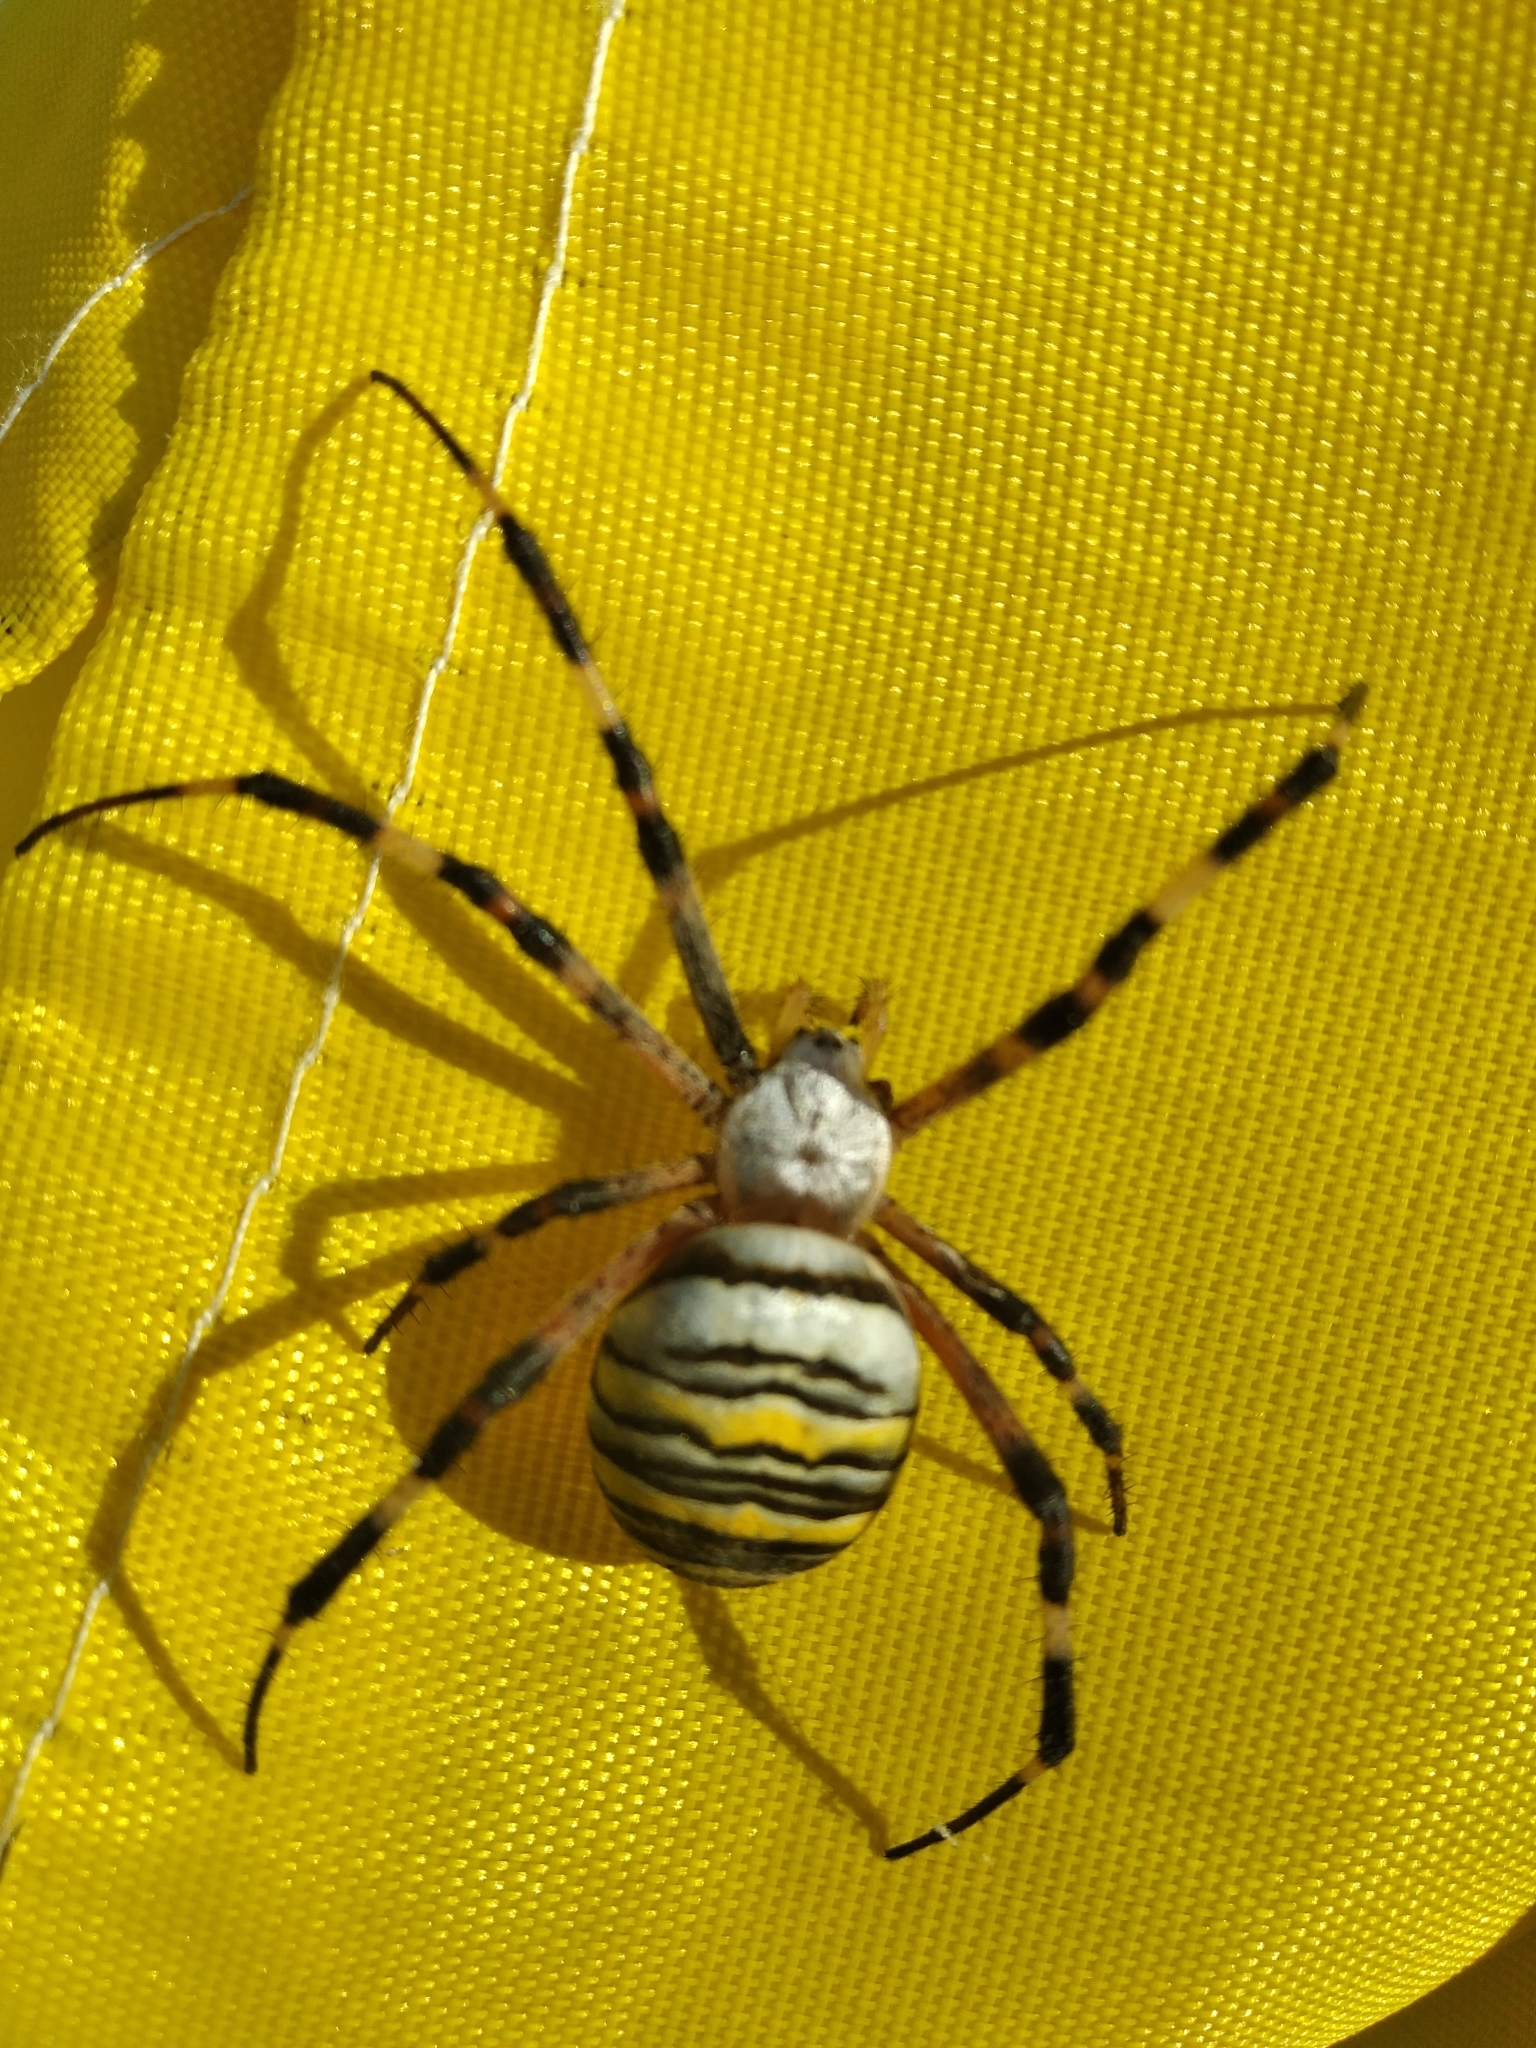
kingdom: Animalia
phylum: Arthropoda
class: Arachnida
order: Araneae
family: Araneidae
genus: Argiope
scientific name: Argiope bruennichi
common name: Wasp spider
